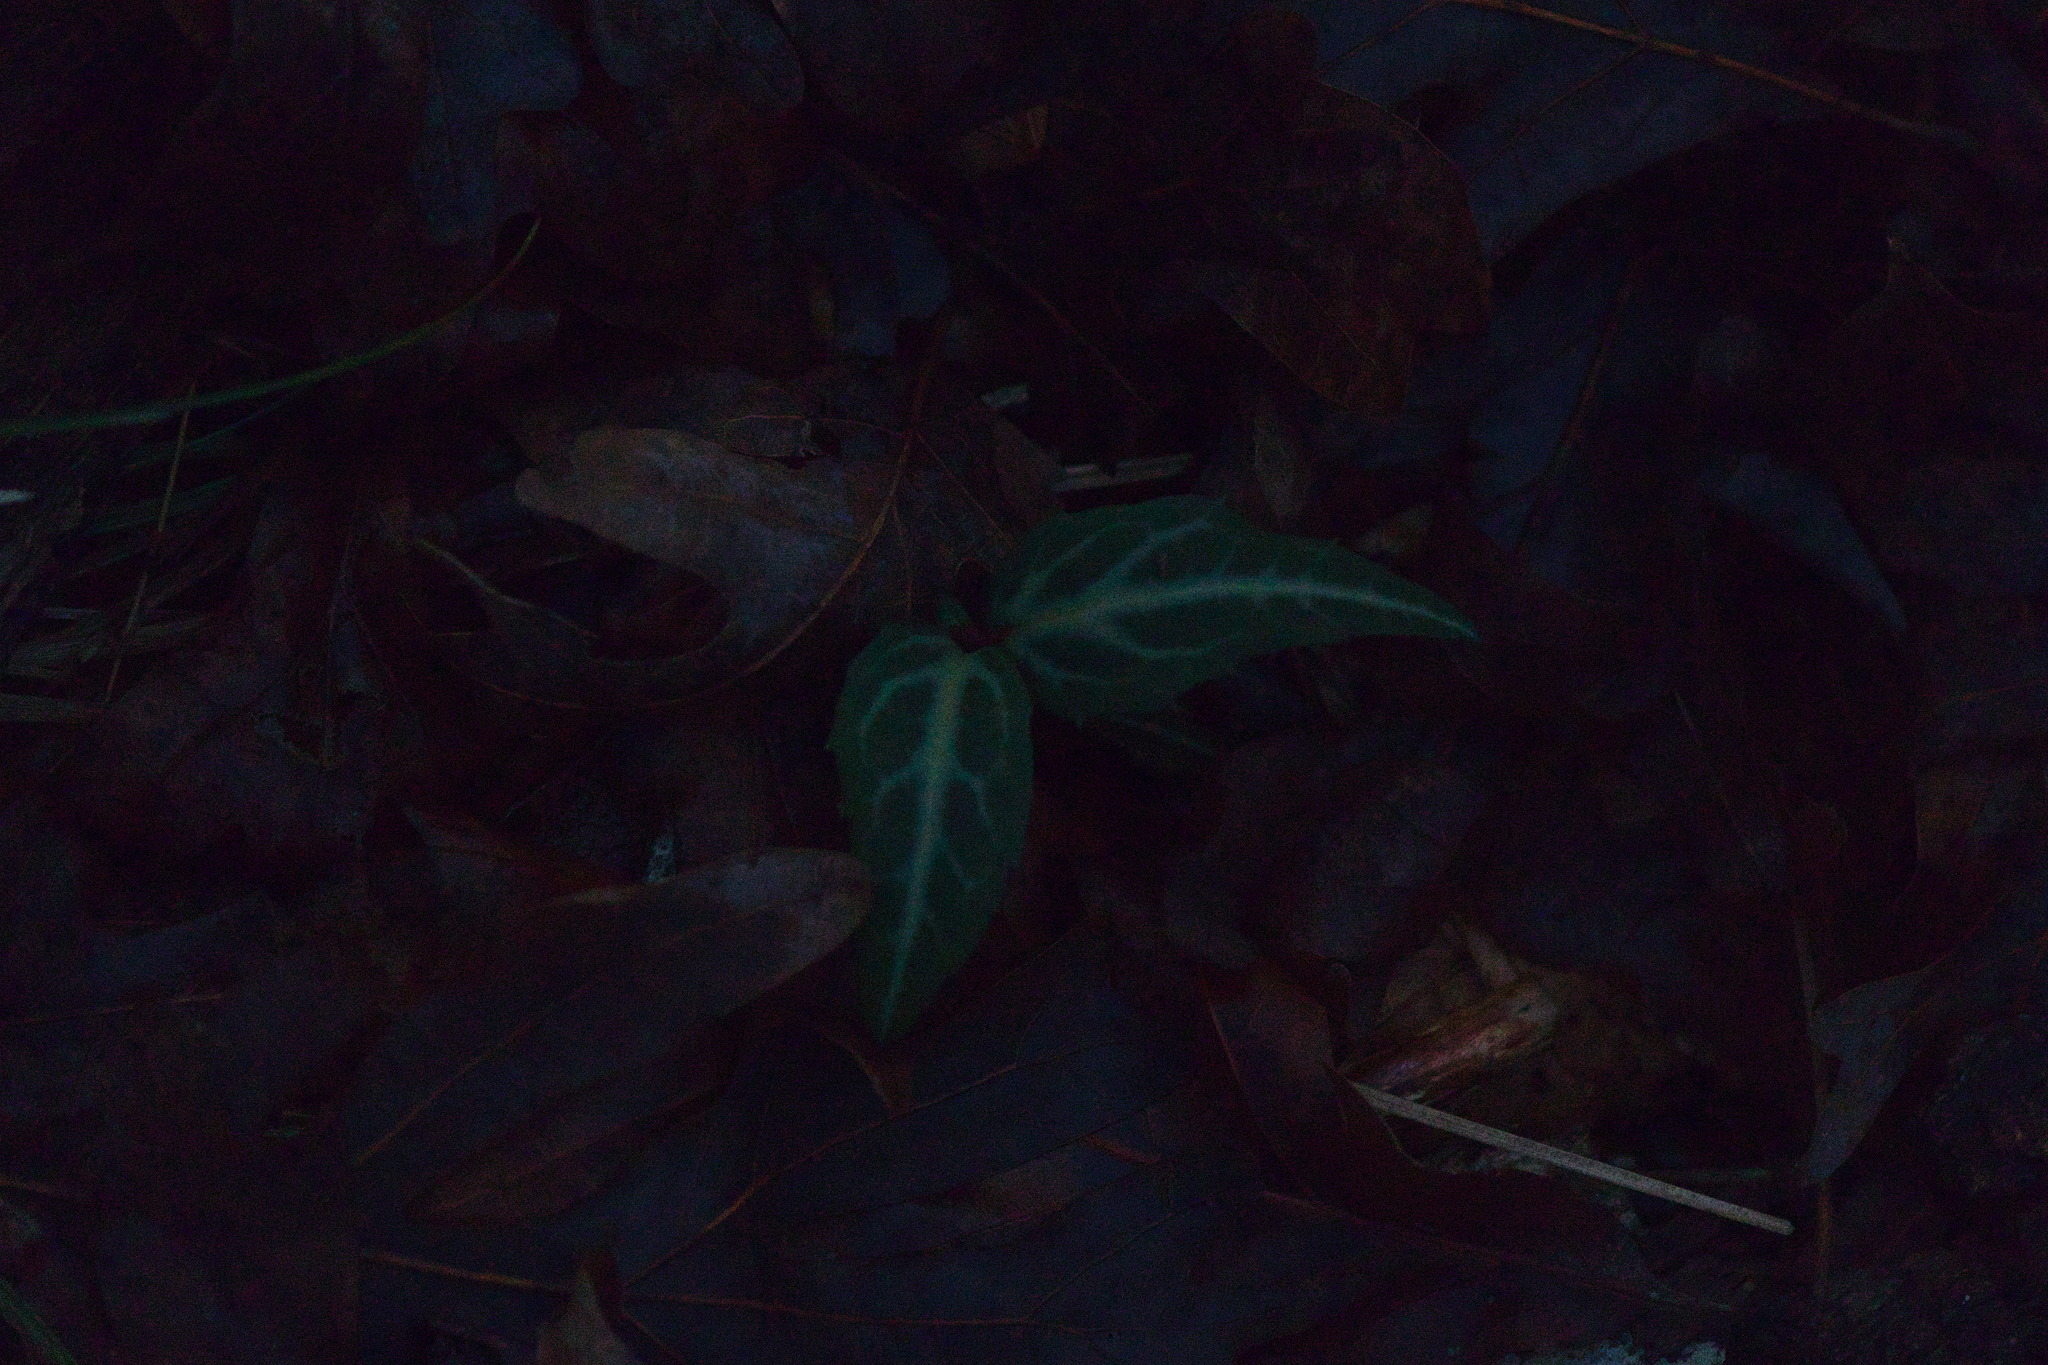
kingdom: Plantae
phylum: Tracheophyta
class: Magnoliopsida
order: Ericales
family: Ericaceae
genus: Chimaphila
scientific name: Chimaphila maculata
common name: Spotted pipsissewa
